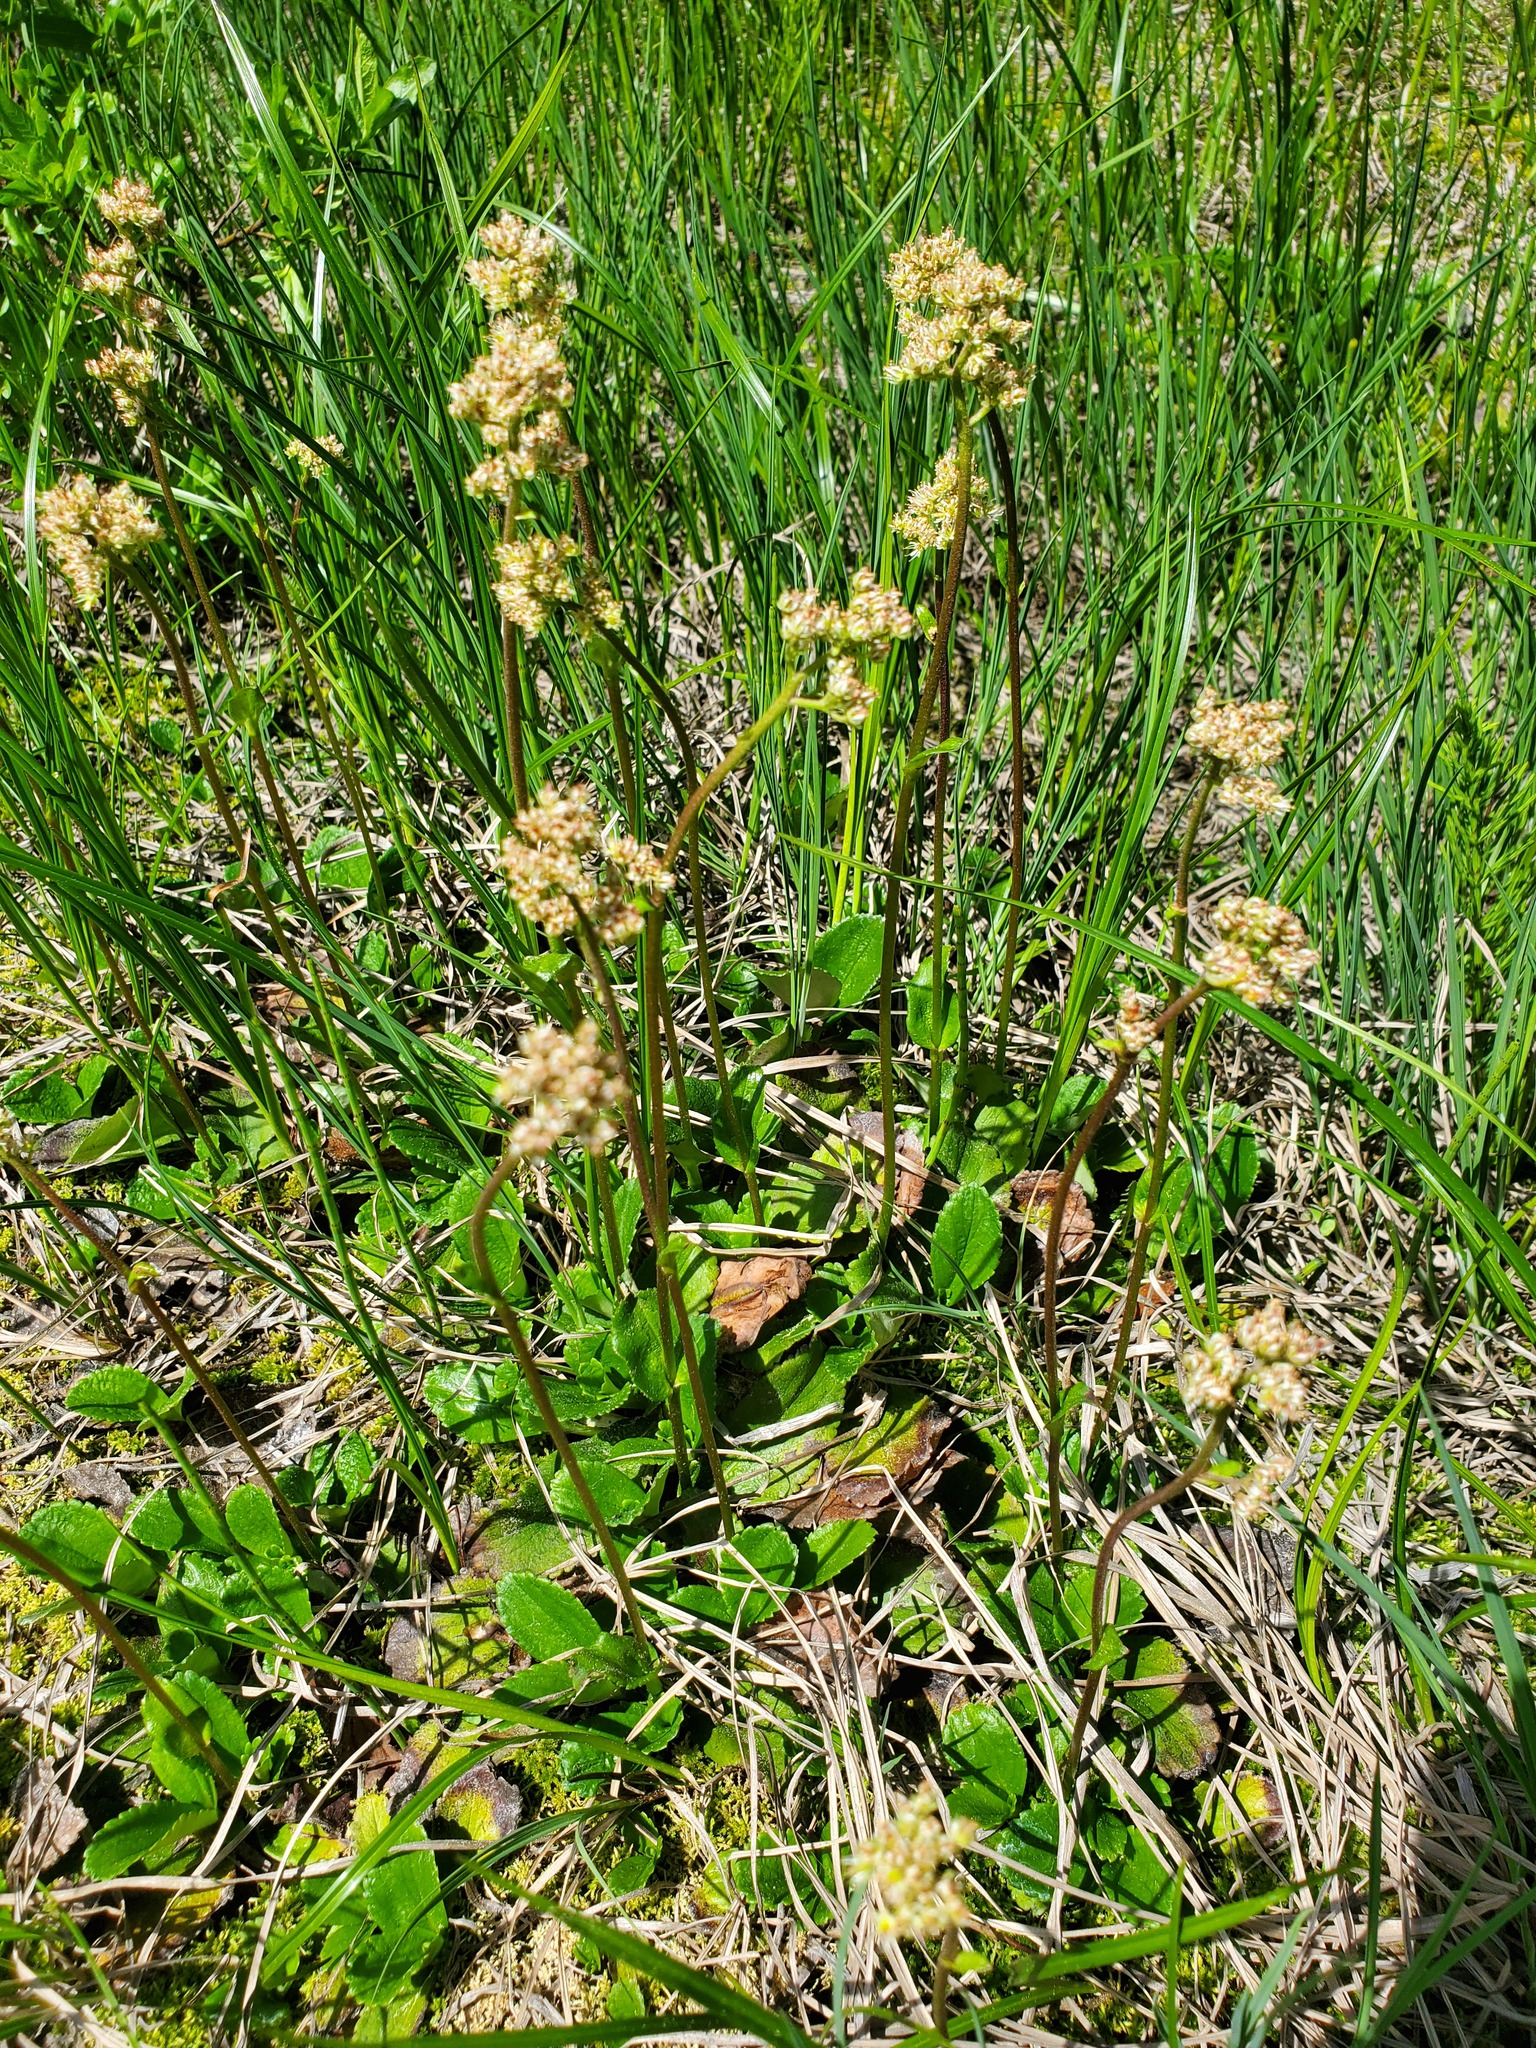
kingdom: Plantae
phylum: Tracheophyta
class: Magnoliopsida
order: Saxifragales
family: Saxifragaceae
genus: Leptarrhena
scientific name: Leptarrhena pyrolifolia
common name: Leatherleaf-saxifrage
